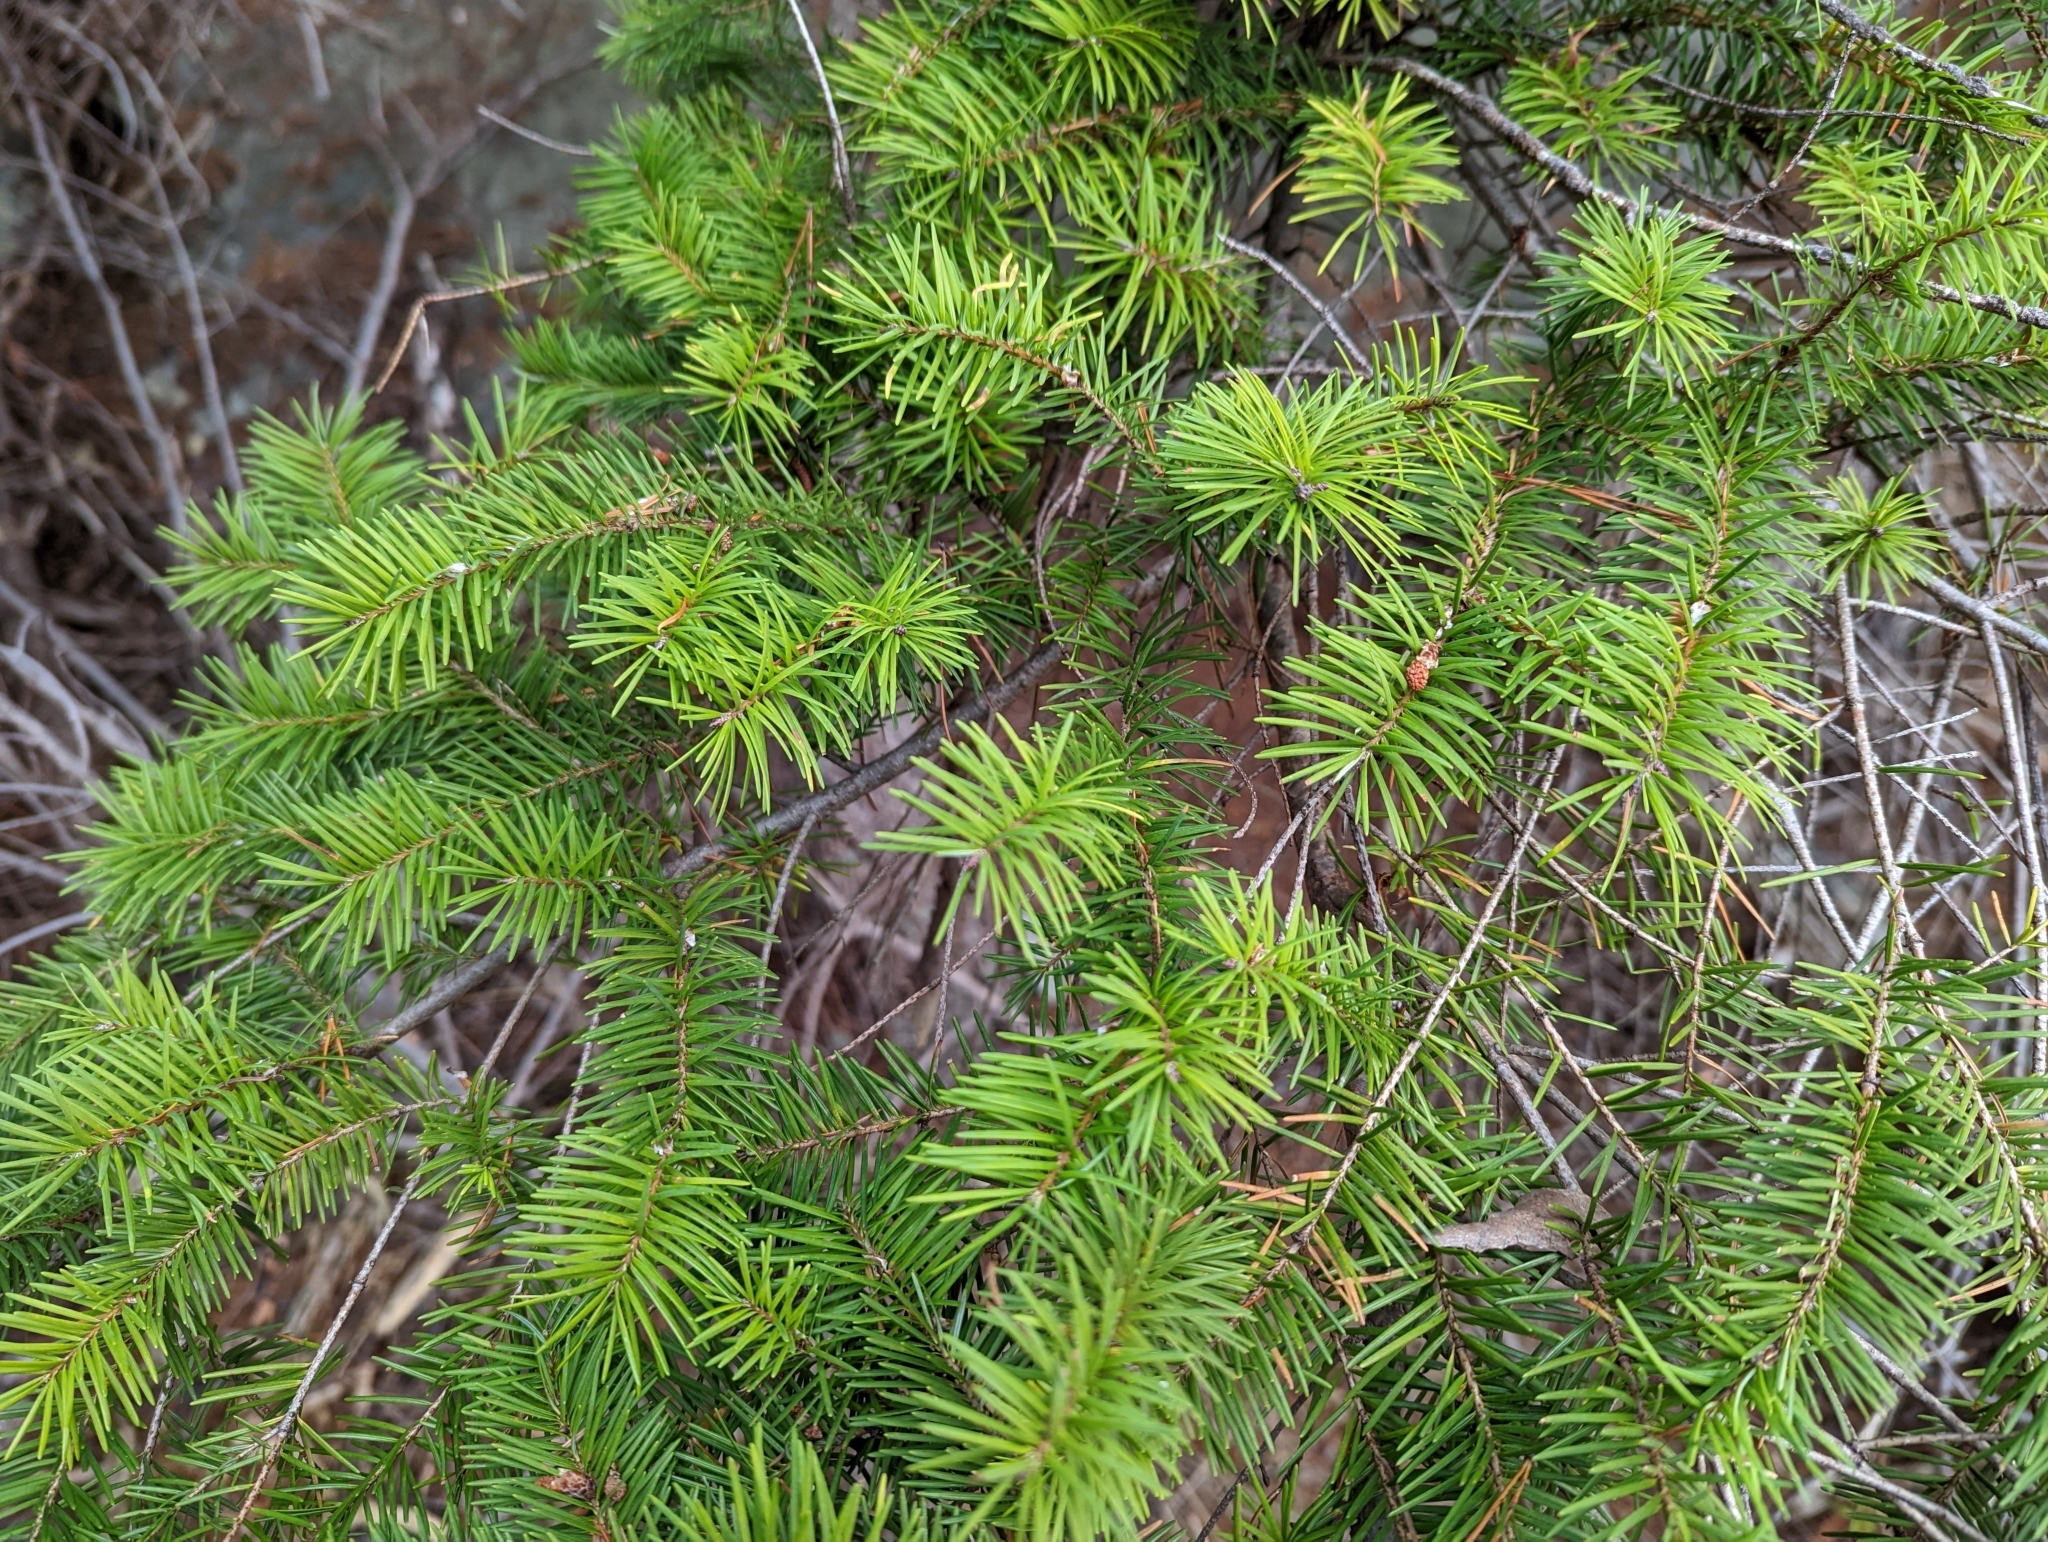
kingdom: Plantae
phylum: Tracheophyta
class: Pinopsida
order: Pinales
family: Pinaceae
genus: Pseudotsuga
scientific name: Pseudotsuga menziesii
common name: Douglas fir
